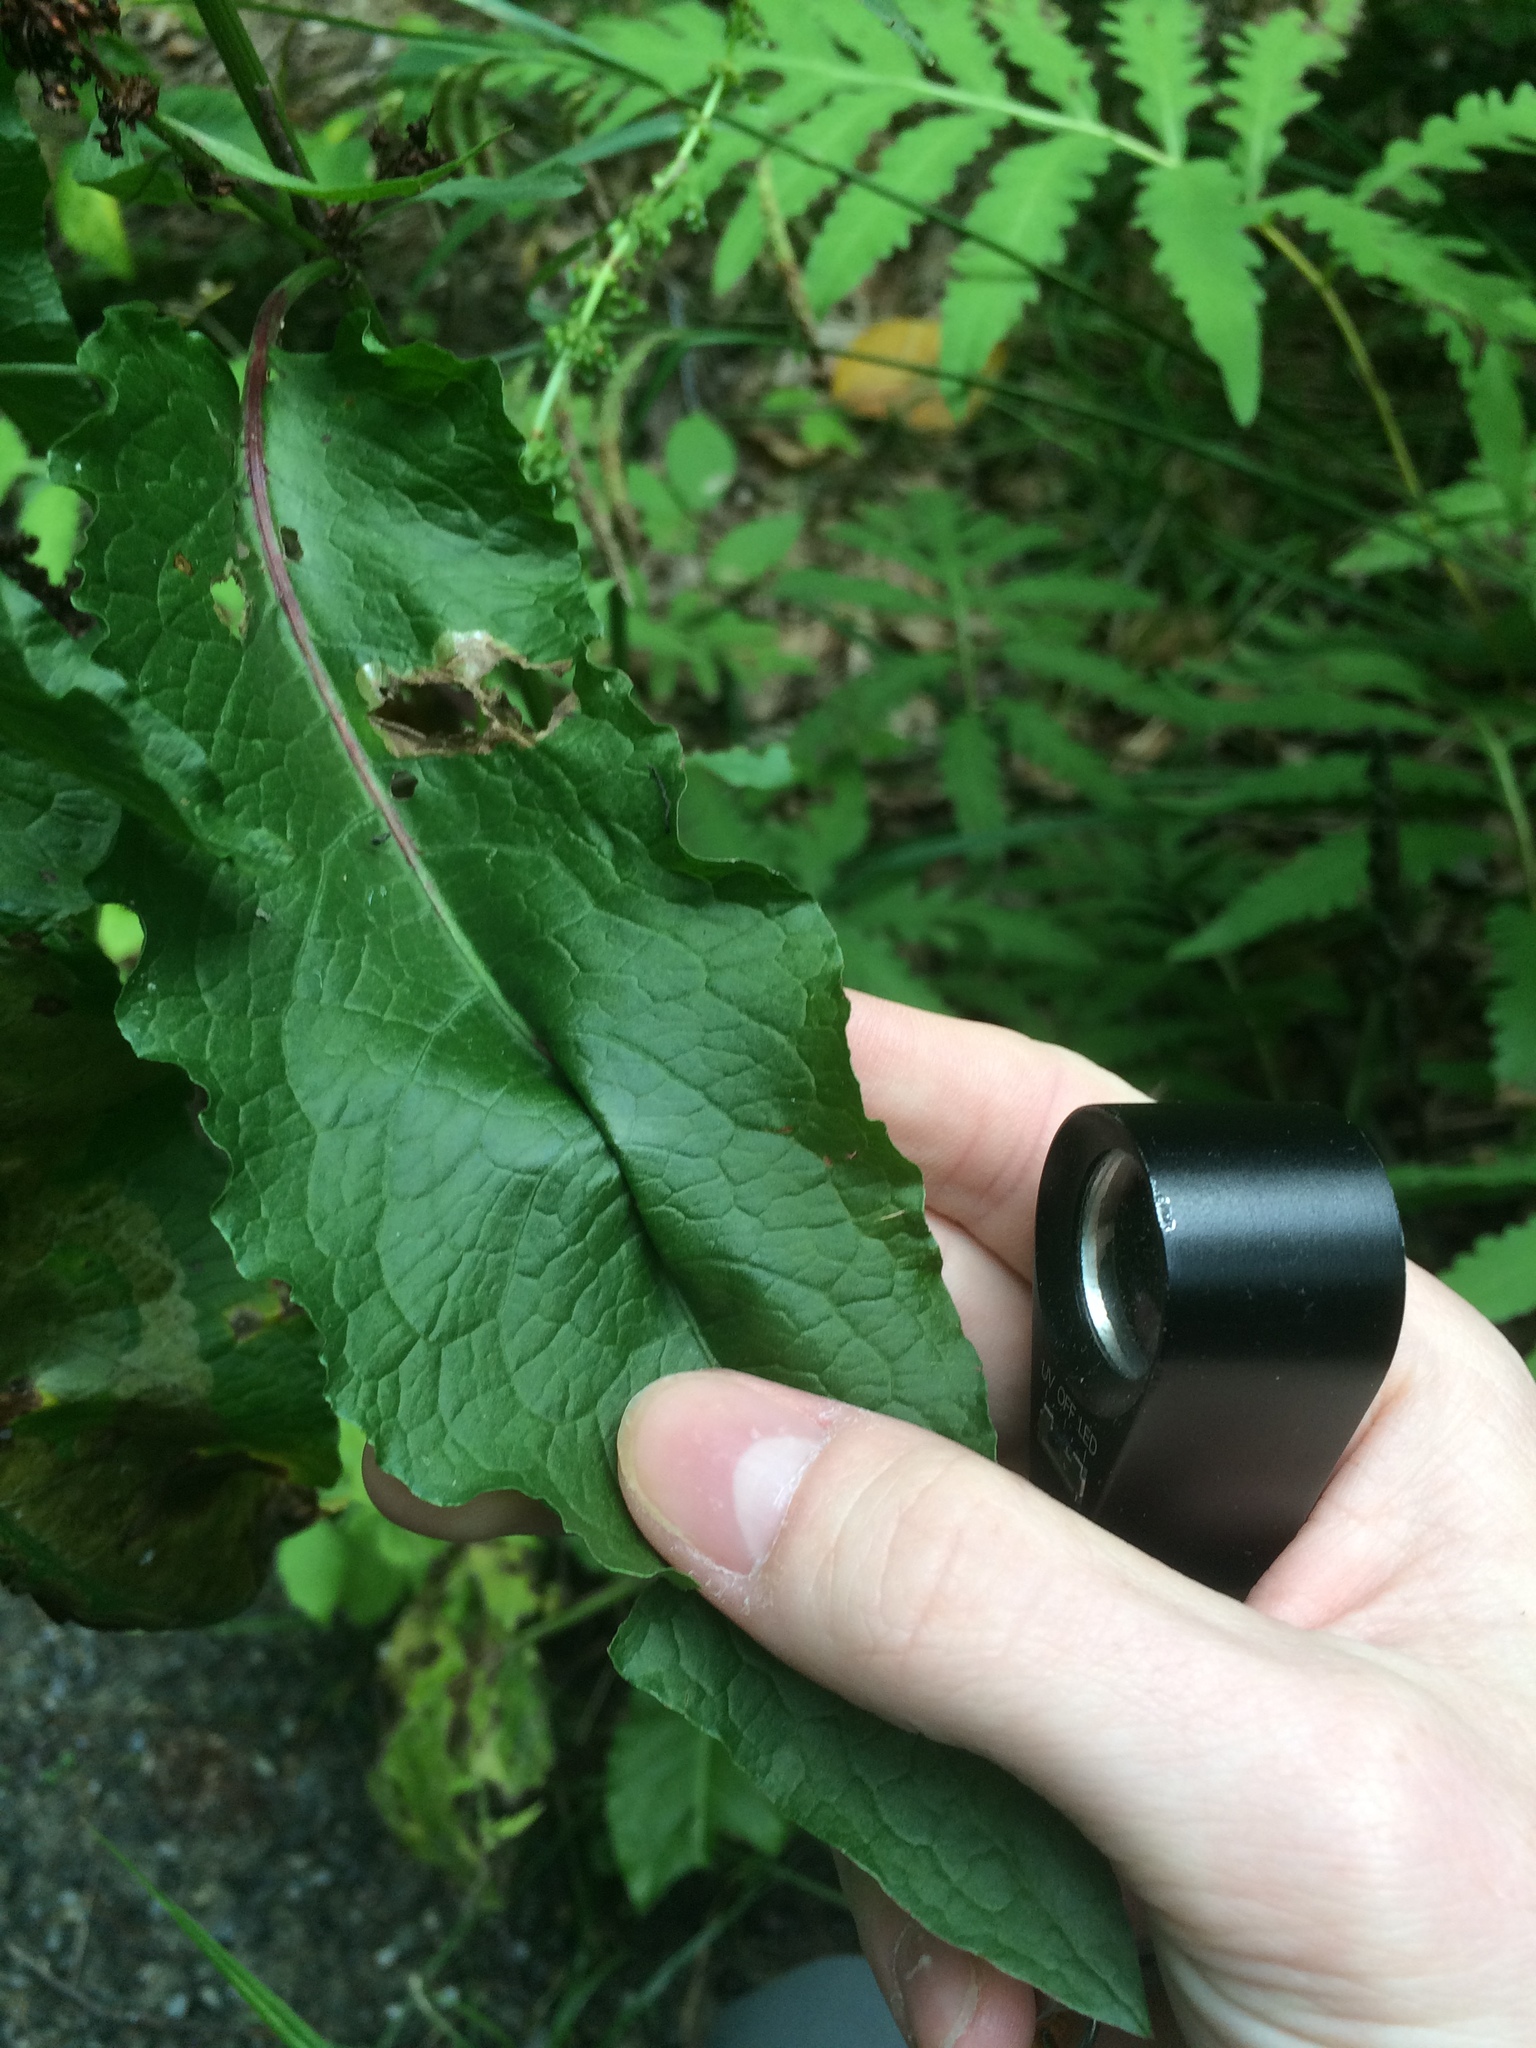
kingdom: Plantae
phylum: Tracheophyta
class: Magnoliopsida
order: Caryophyllales
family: Polygonaceae
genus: Rumex
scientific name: Rumex obtusifolius
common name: Bitter dock
